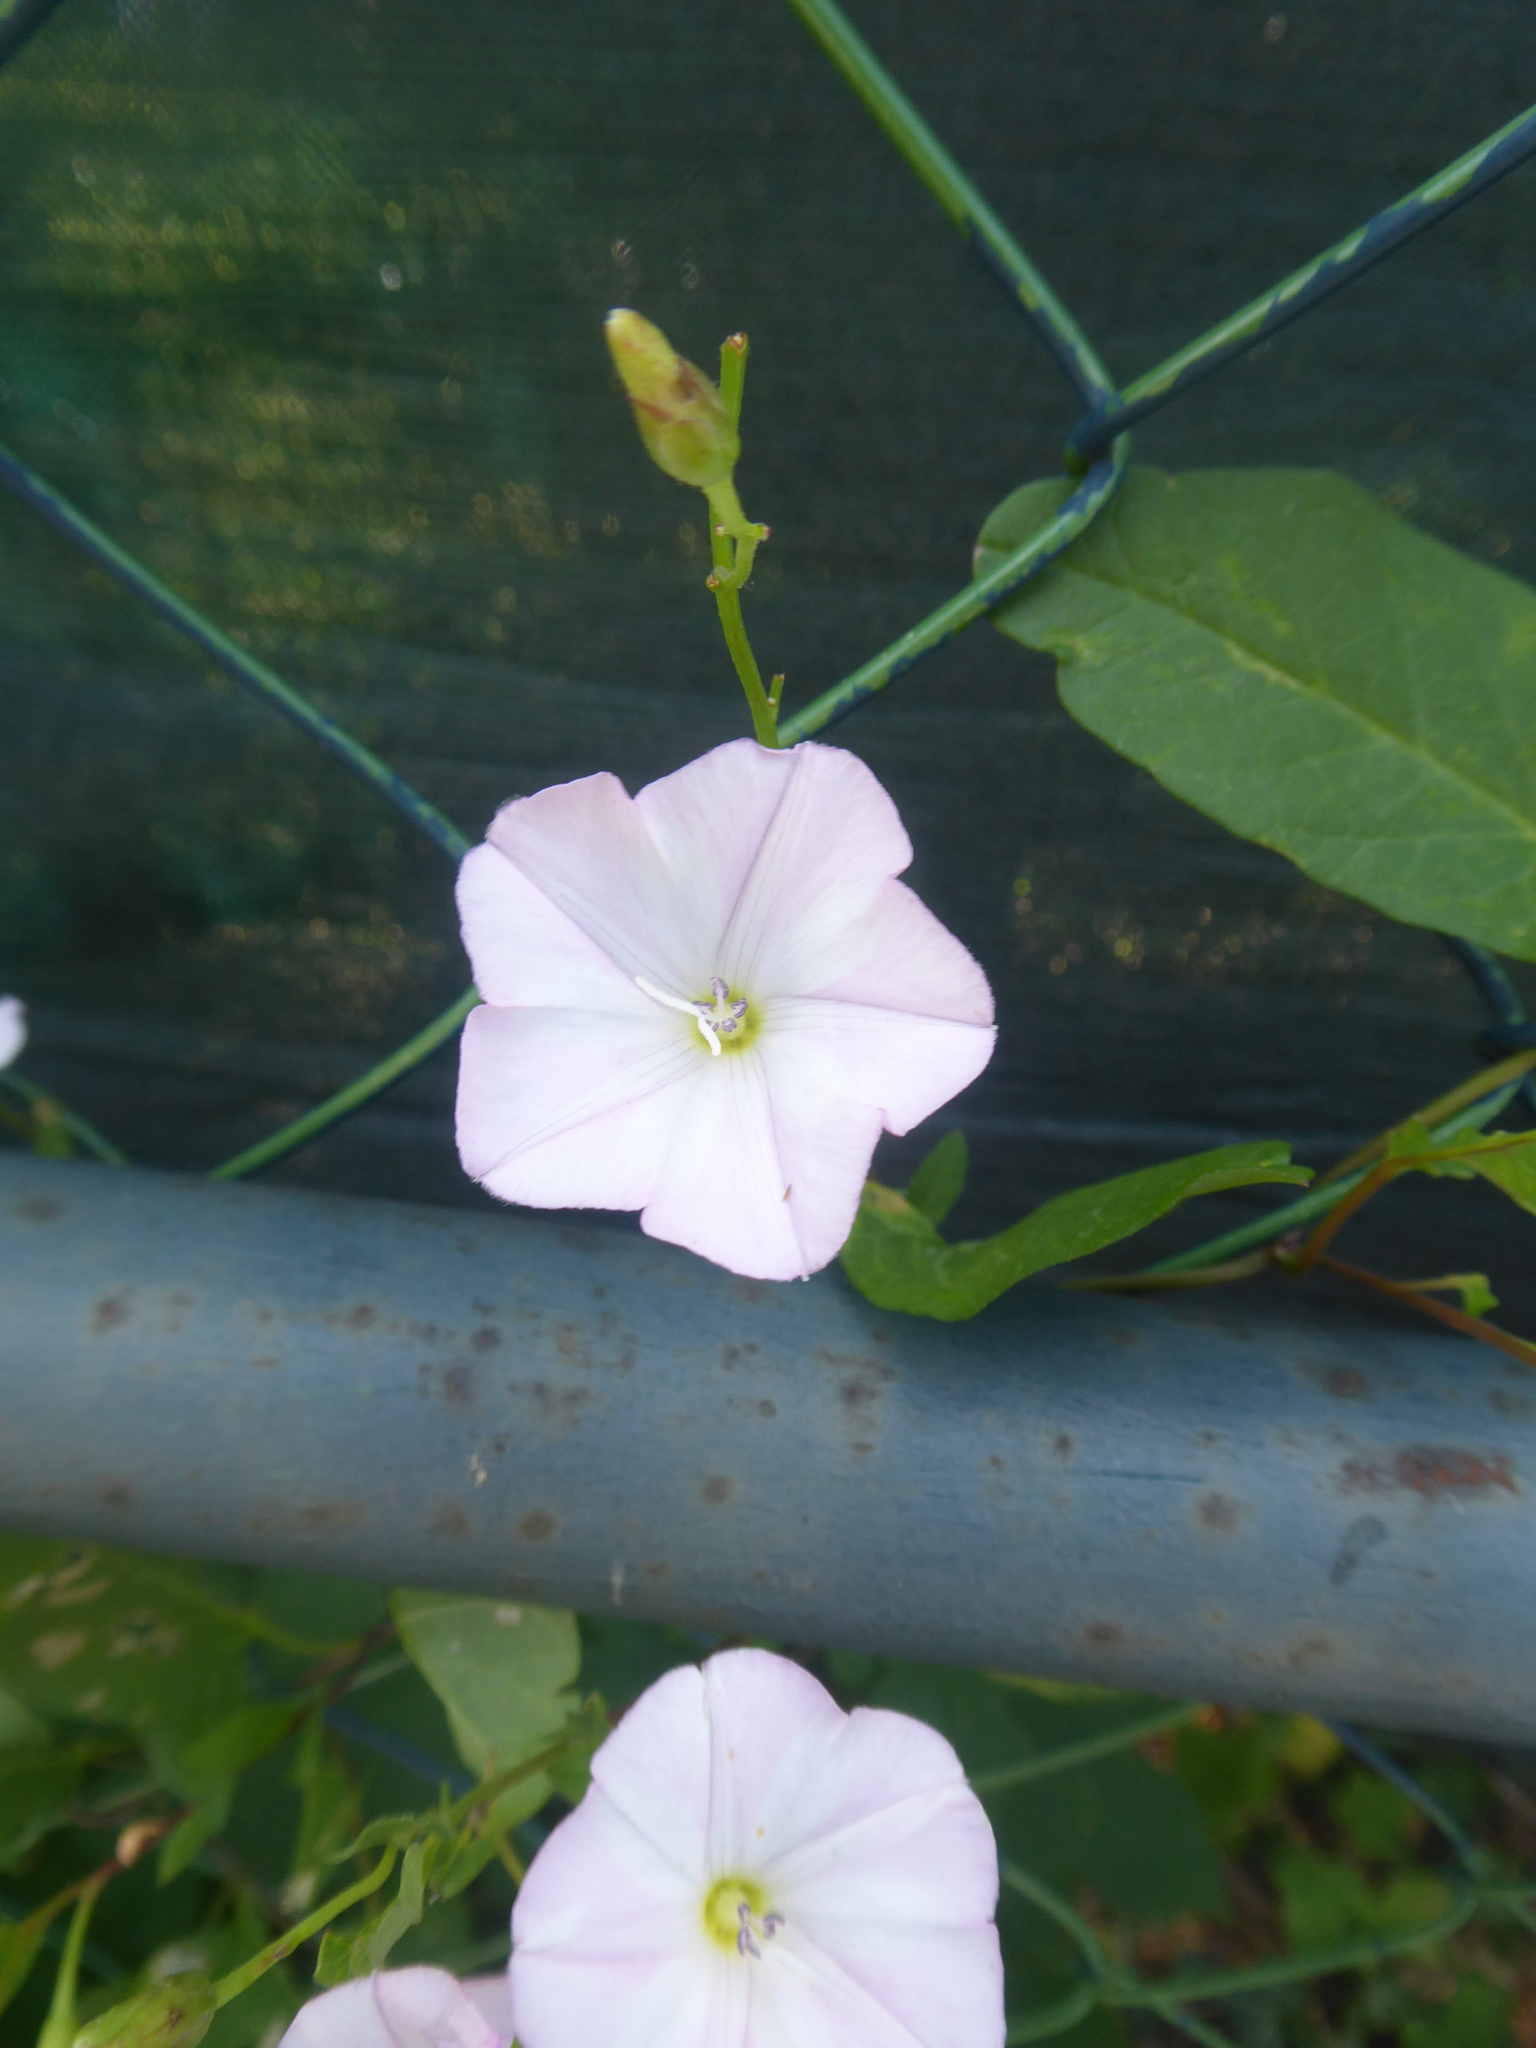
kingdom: Plantae
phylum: Tracheophyta
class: Magnoliopsida
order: Solanales
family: Convolvulaceae
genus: Convolvulus
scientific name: Convolvulus arvensis
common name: Field bindweed
